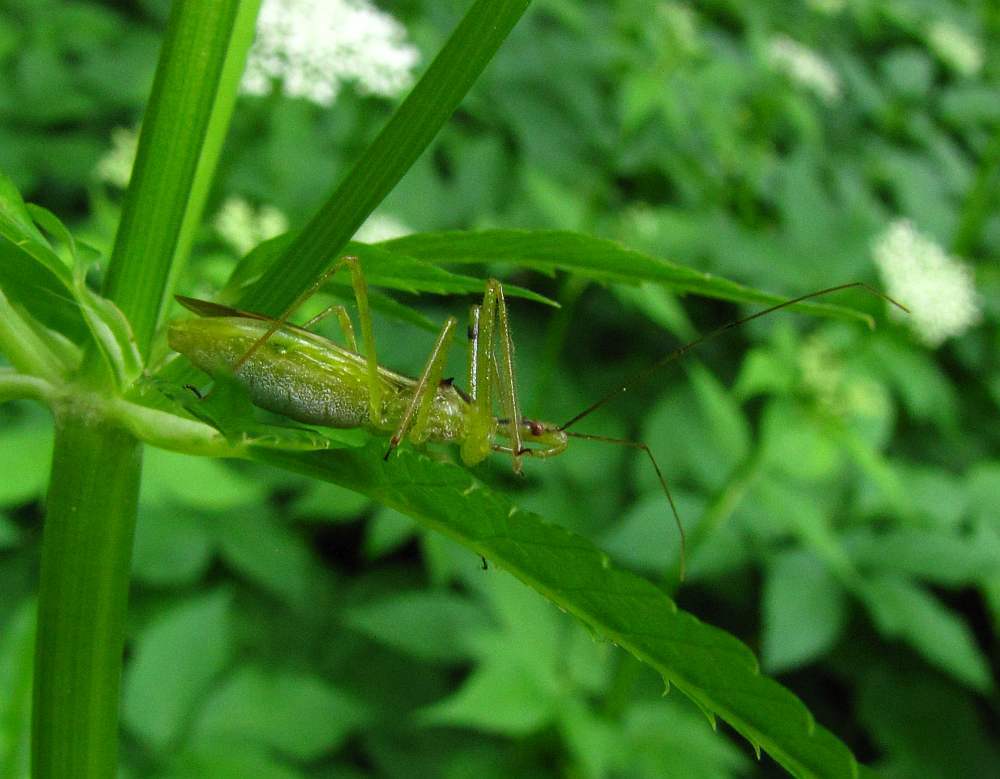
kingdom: Animalia
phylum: Arthropoda
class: Insecta
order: Hemiptera
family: Reduviidae
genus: Zelus
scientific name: Zelus luridus
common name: Pale green assassin bug
